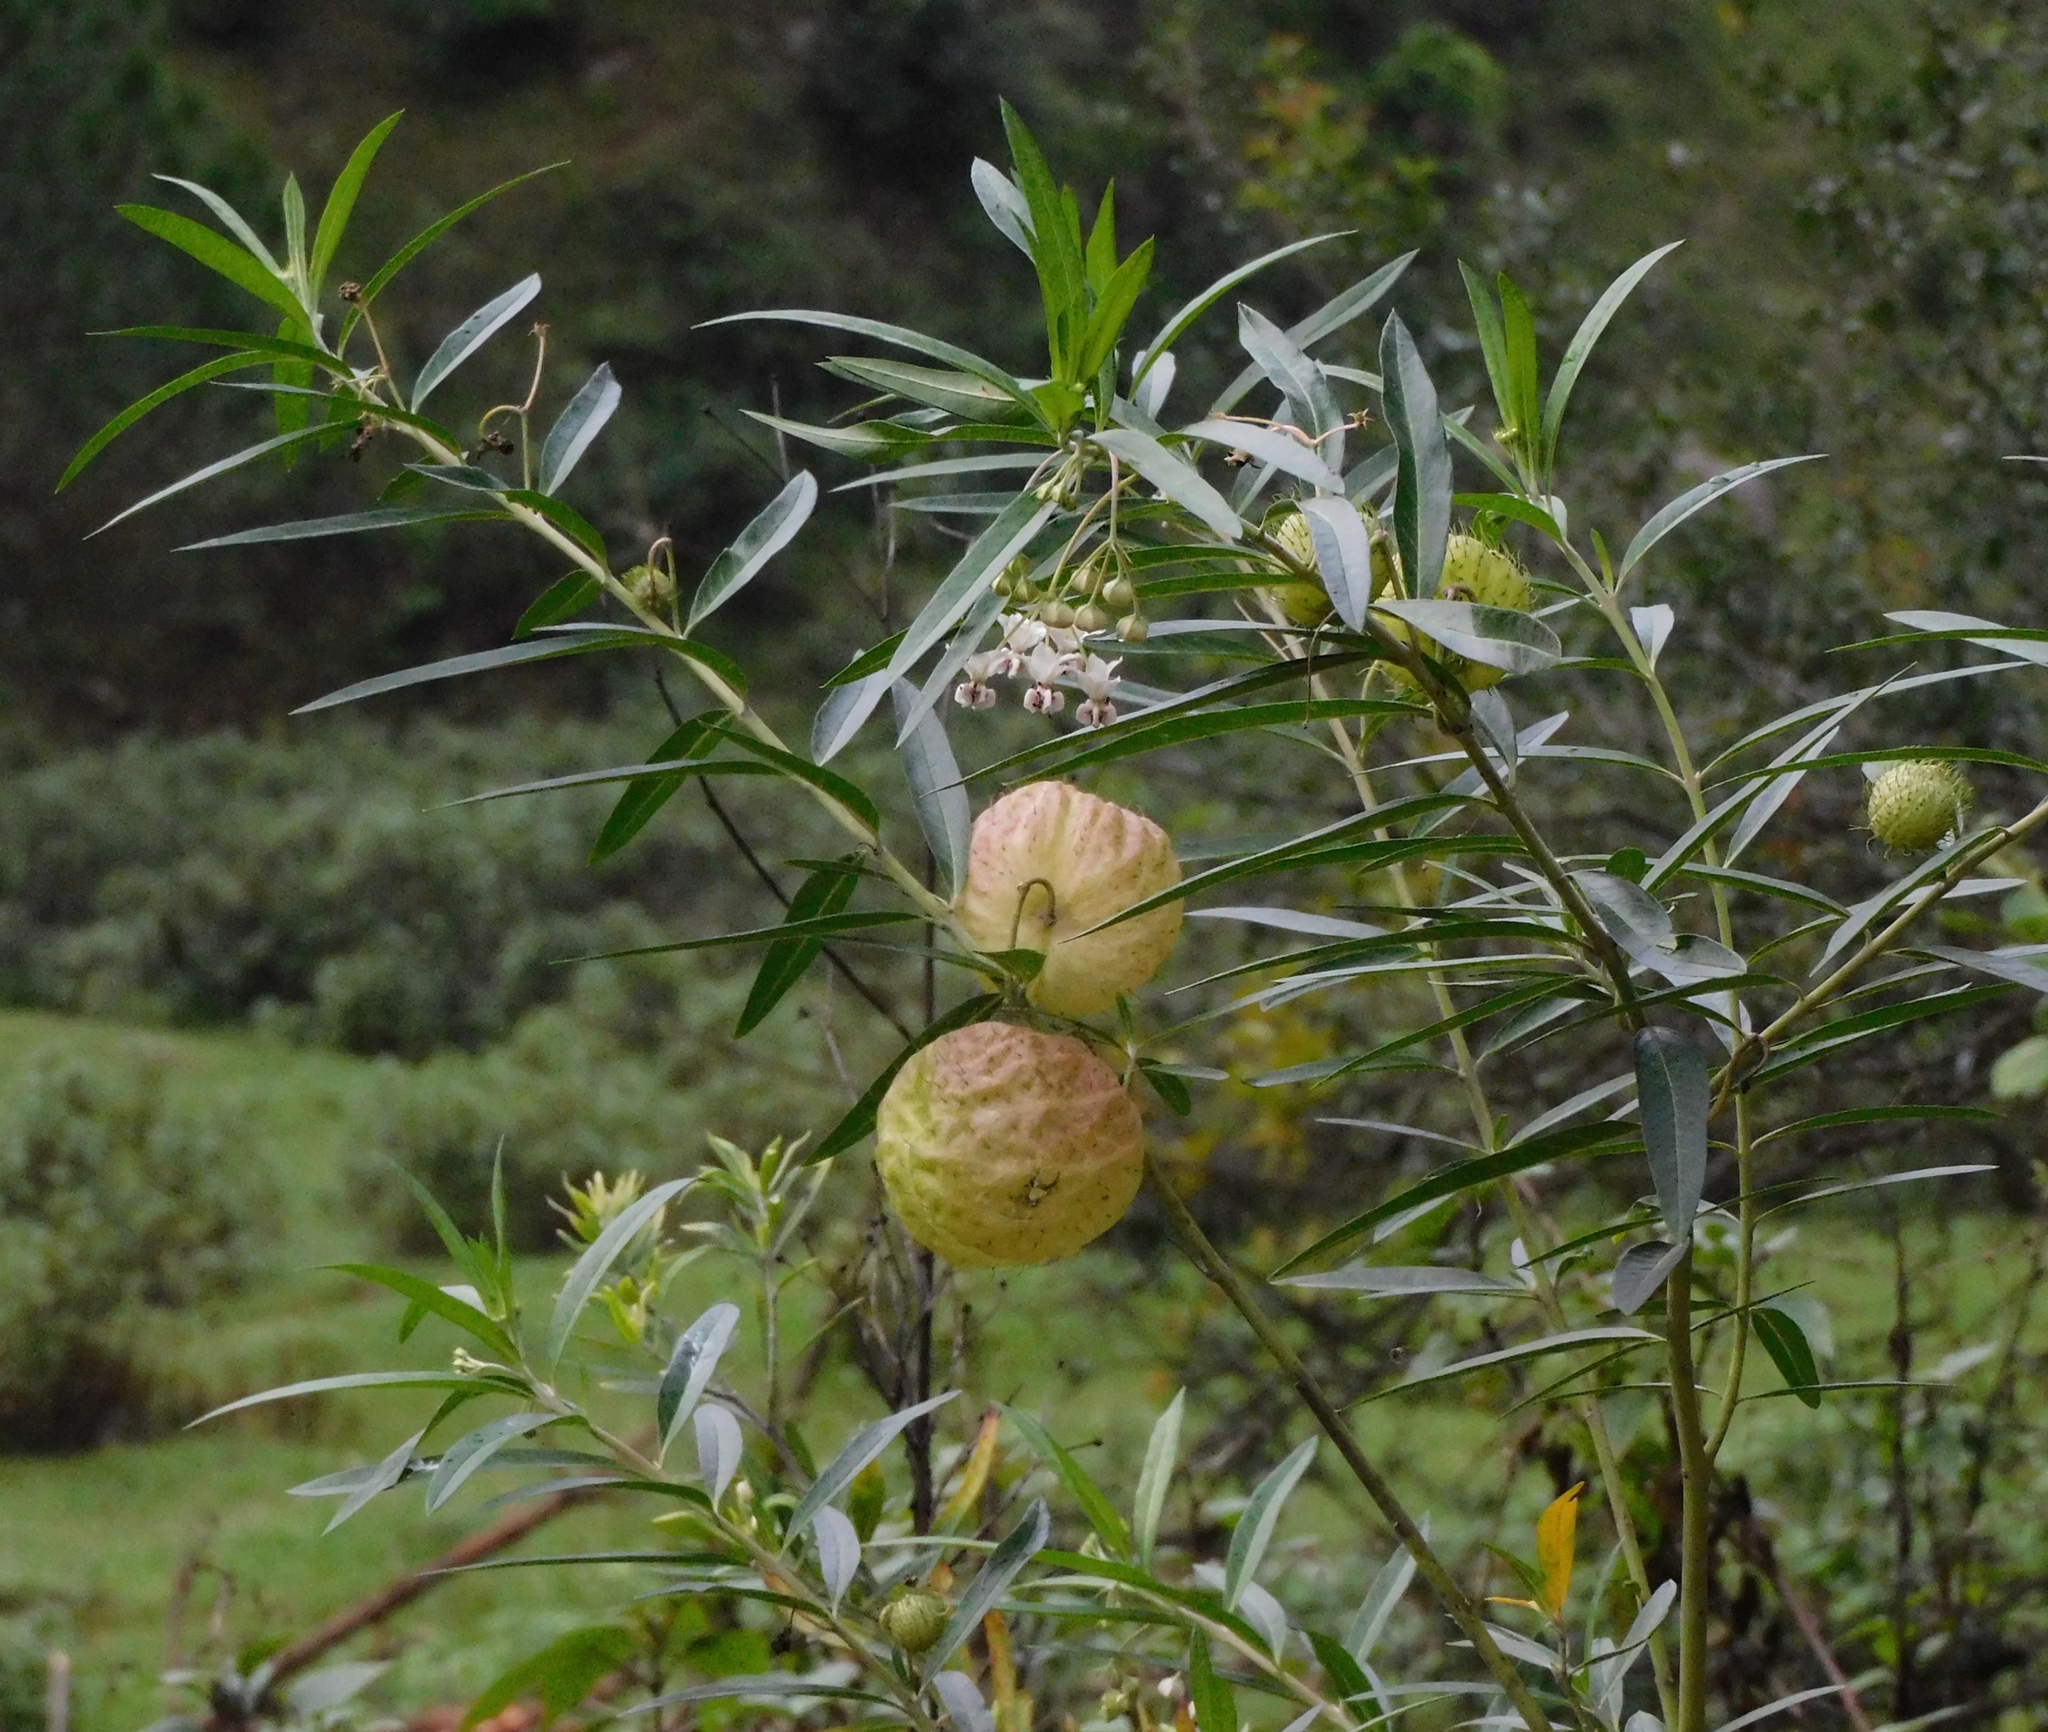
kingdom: Plantae
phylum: Tracheophyta
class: Magnoliopsida
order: Gentianales
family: Apocynaceae
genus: Gomphocarpus
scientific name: Gomphocarpus physocarpus
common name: Balloon cotton bush
